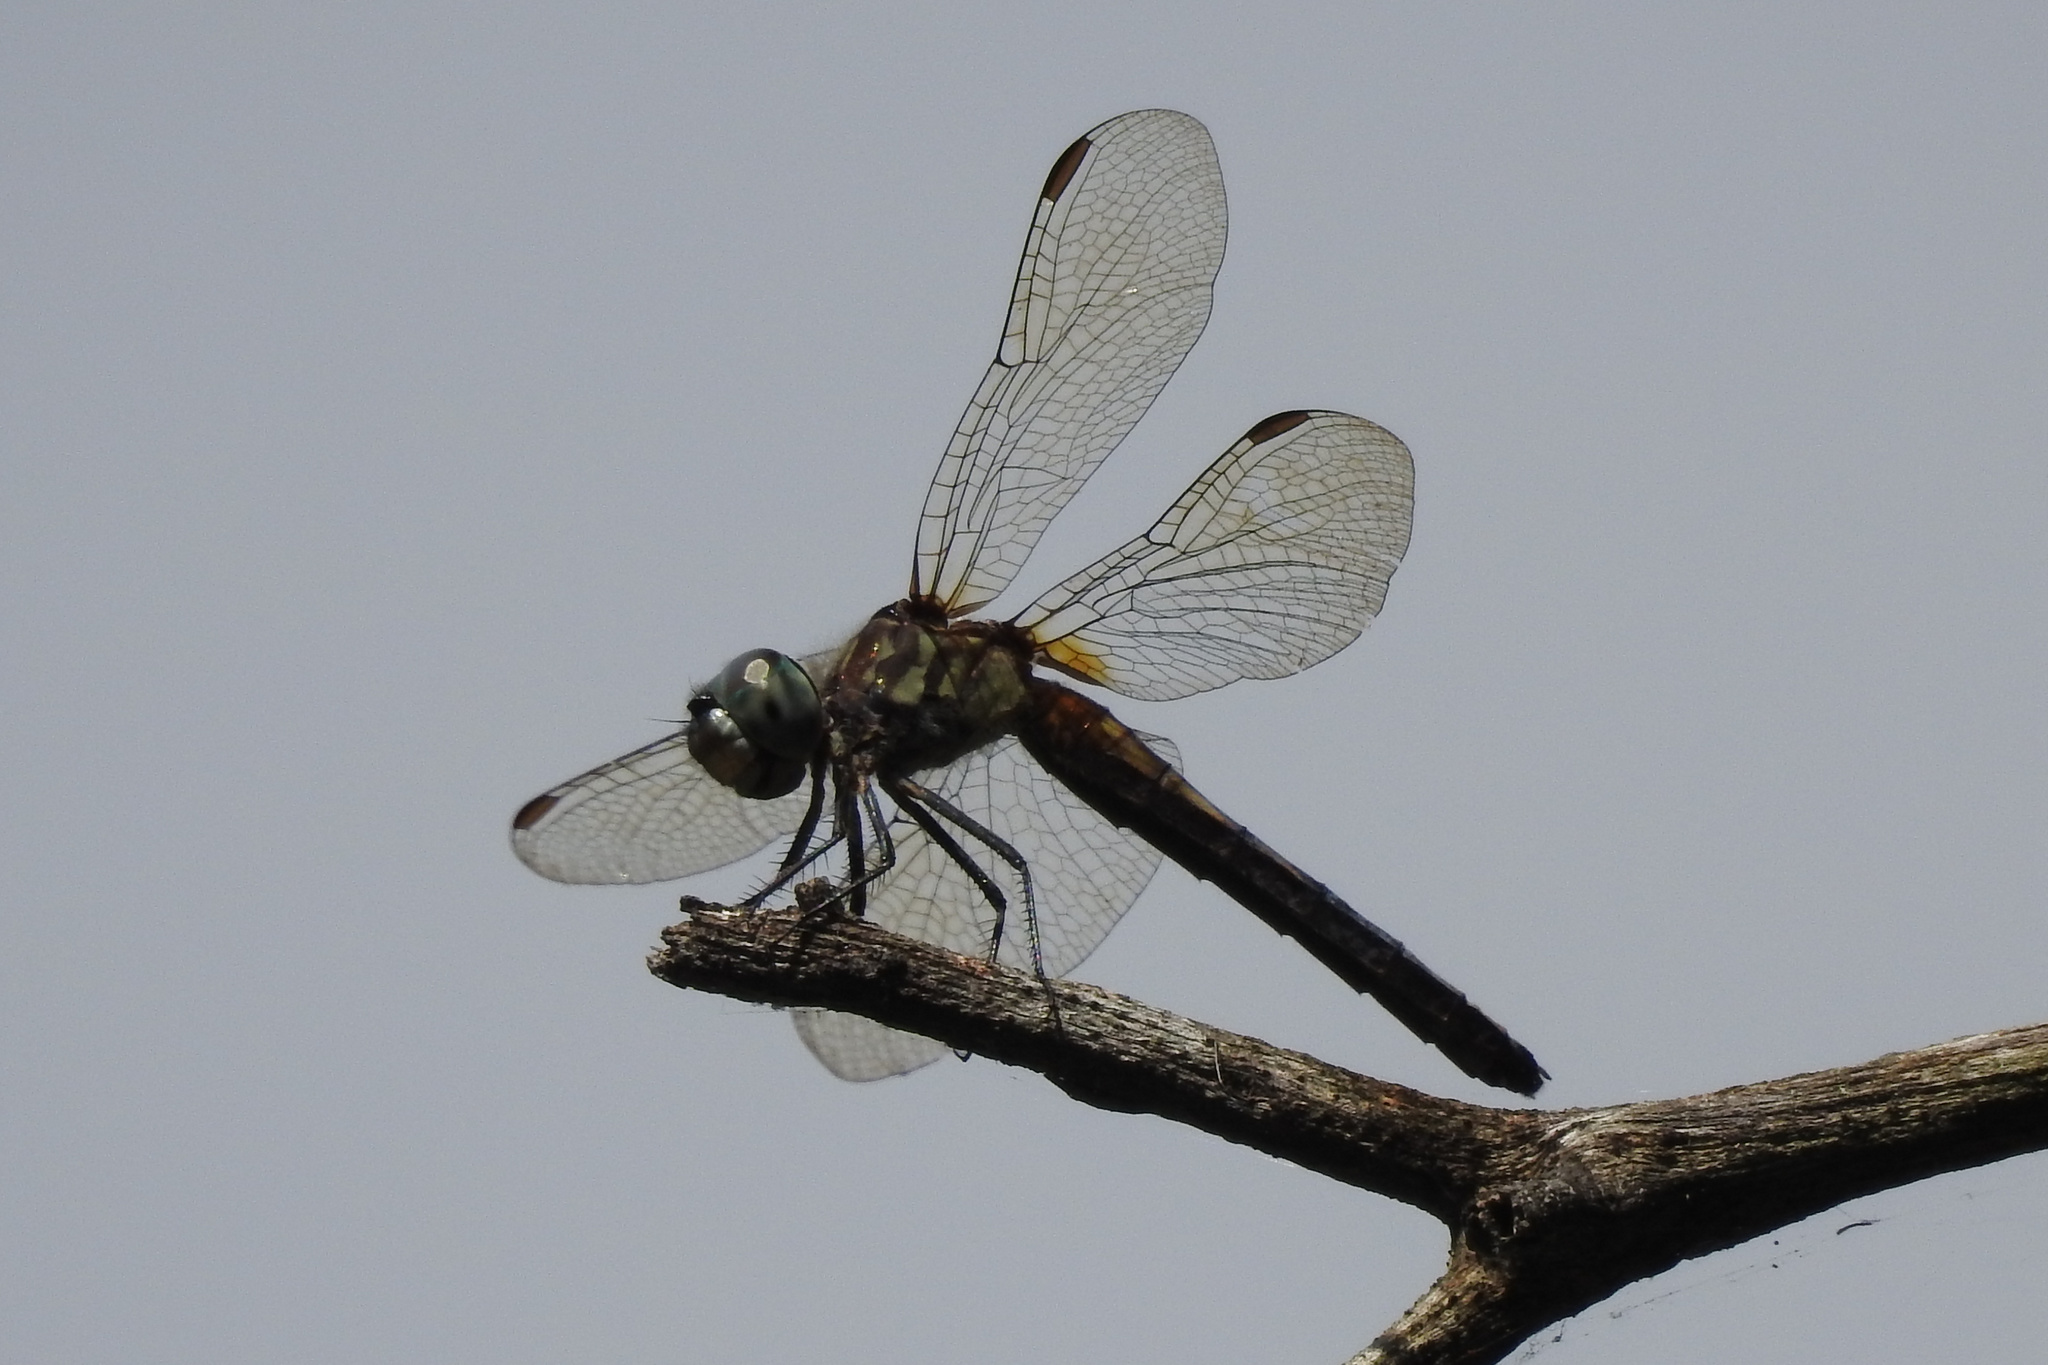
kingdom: Animalia
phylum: Arthropoda
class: Insecta
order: Odonata
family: Libellulidae
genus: Pachydiplax
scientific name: Pachydiplax longipennis
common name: Blue dasher
